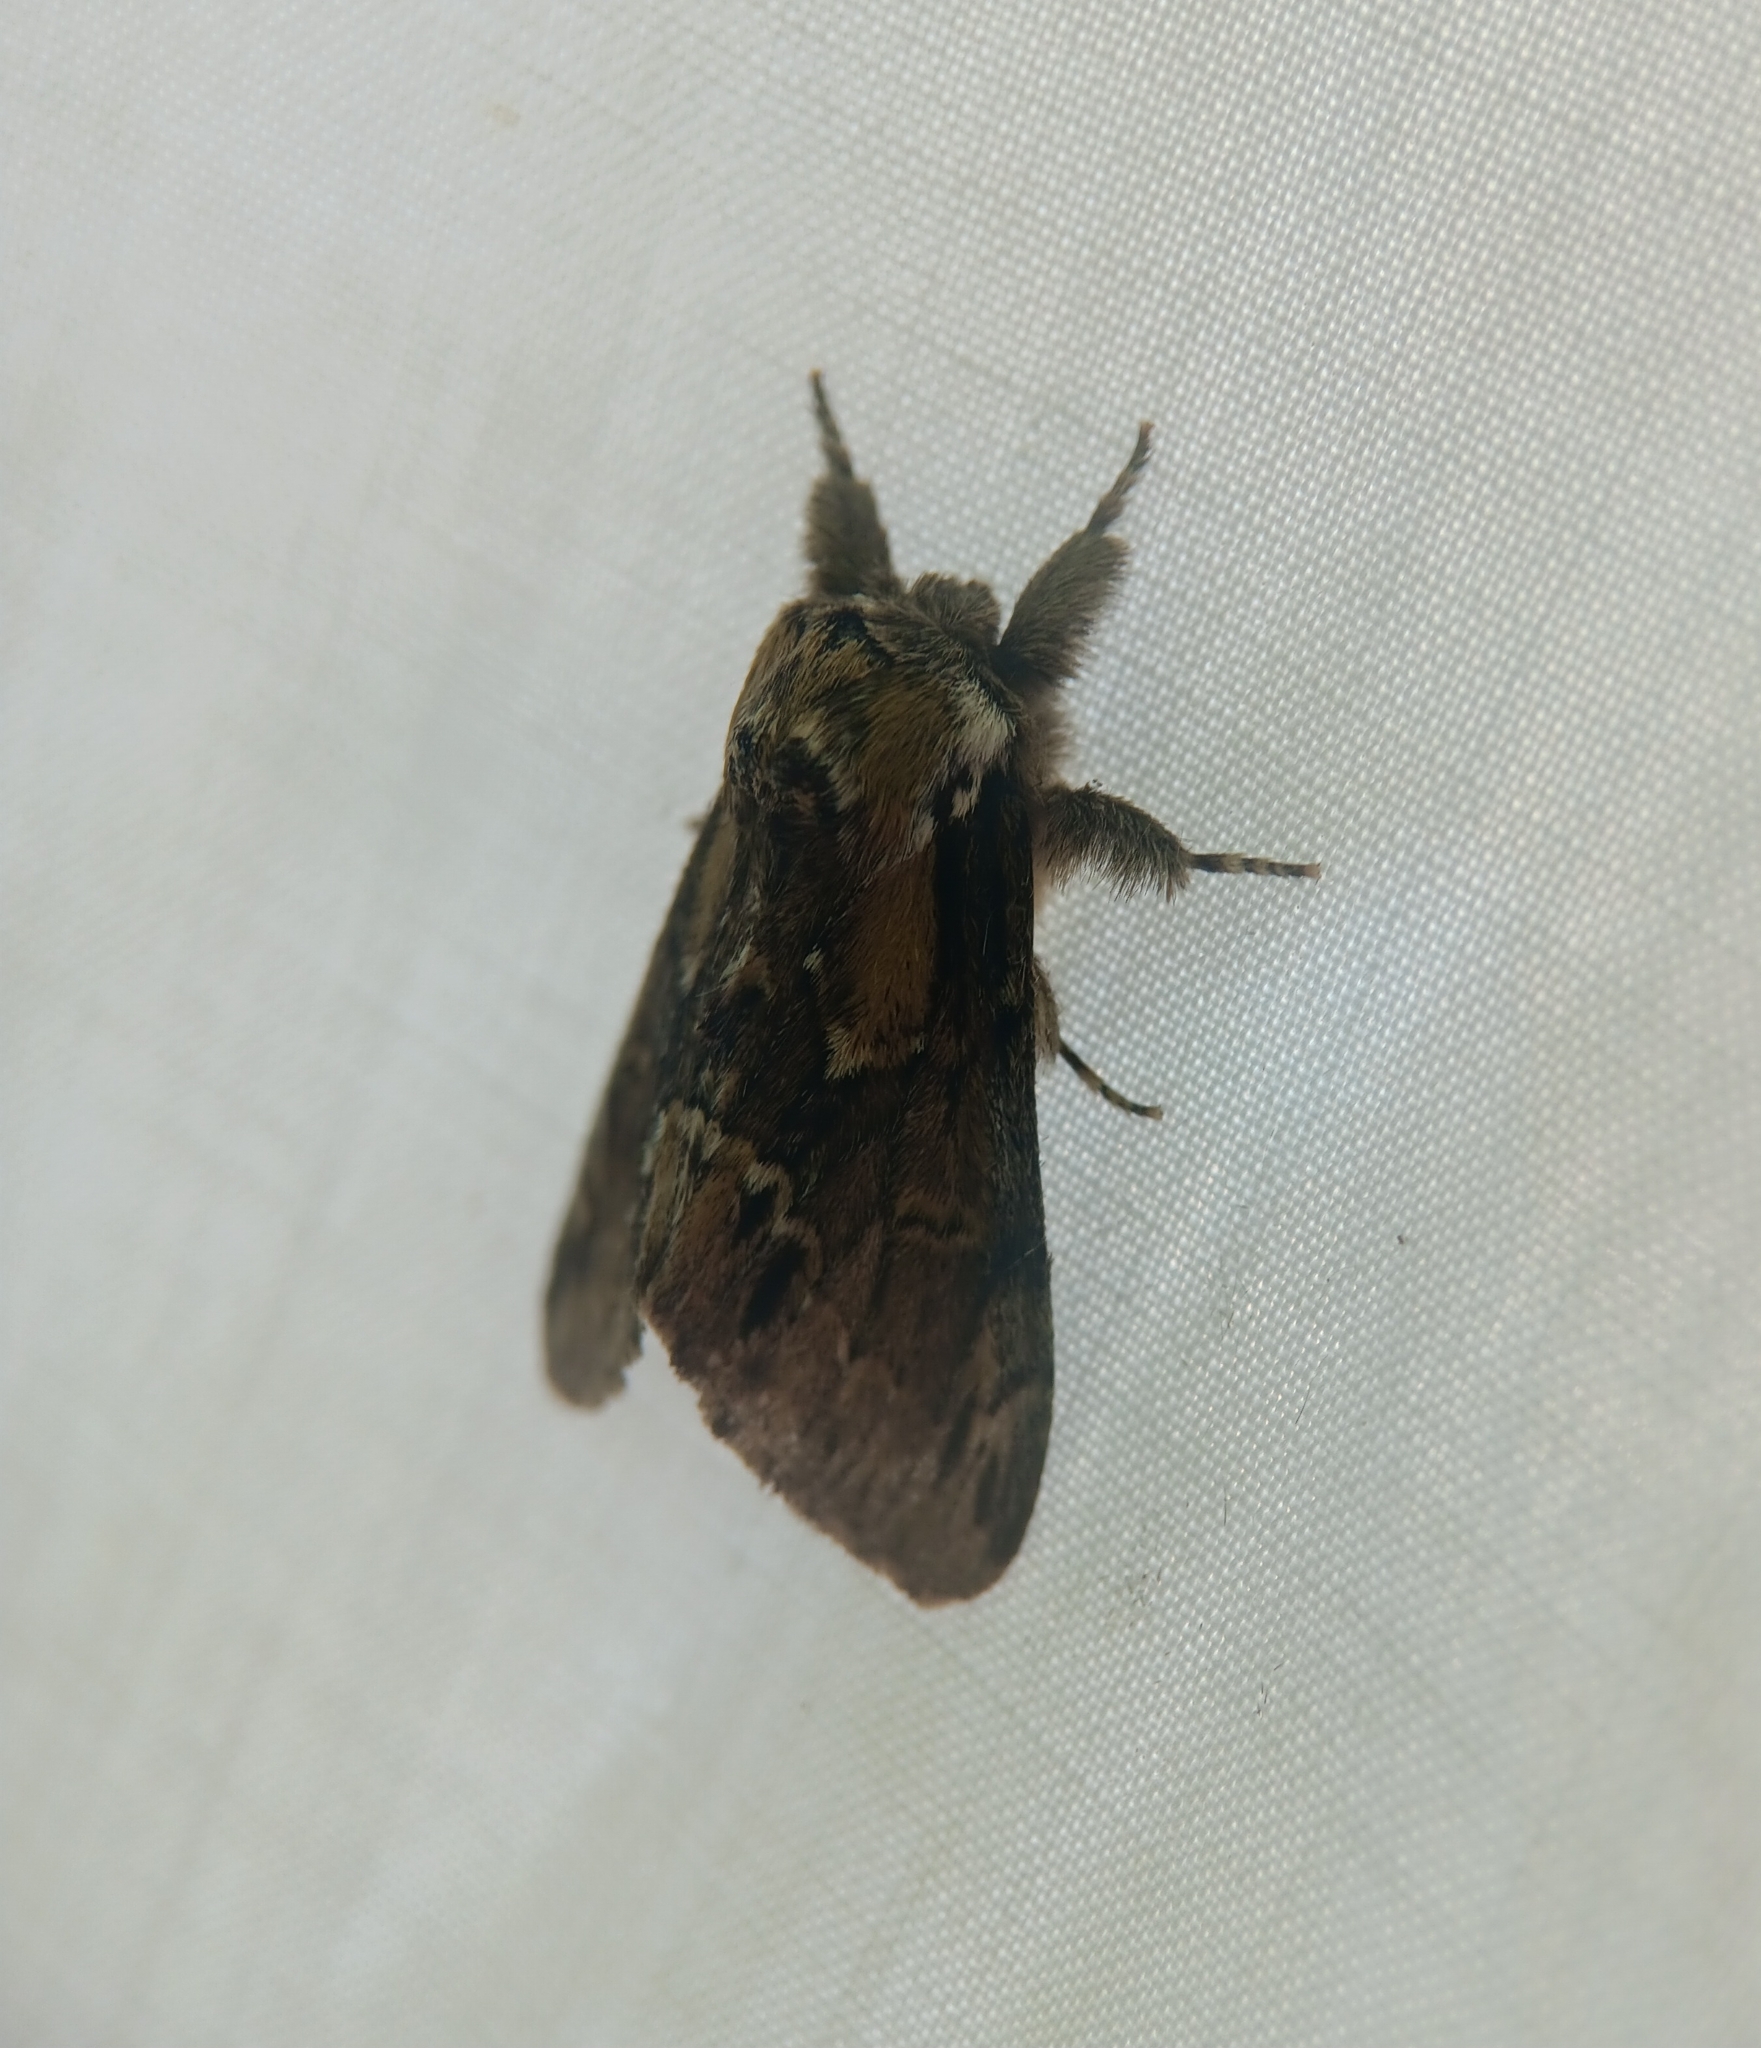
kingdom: Animalia
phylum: Arthropoda
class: Insecta
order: Lepidoptera
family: Notodontidae
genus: Paraeschra
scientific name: Paraeschra georgica
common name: Georgian prominent
